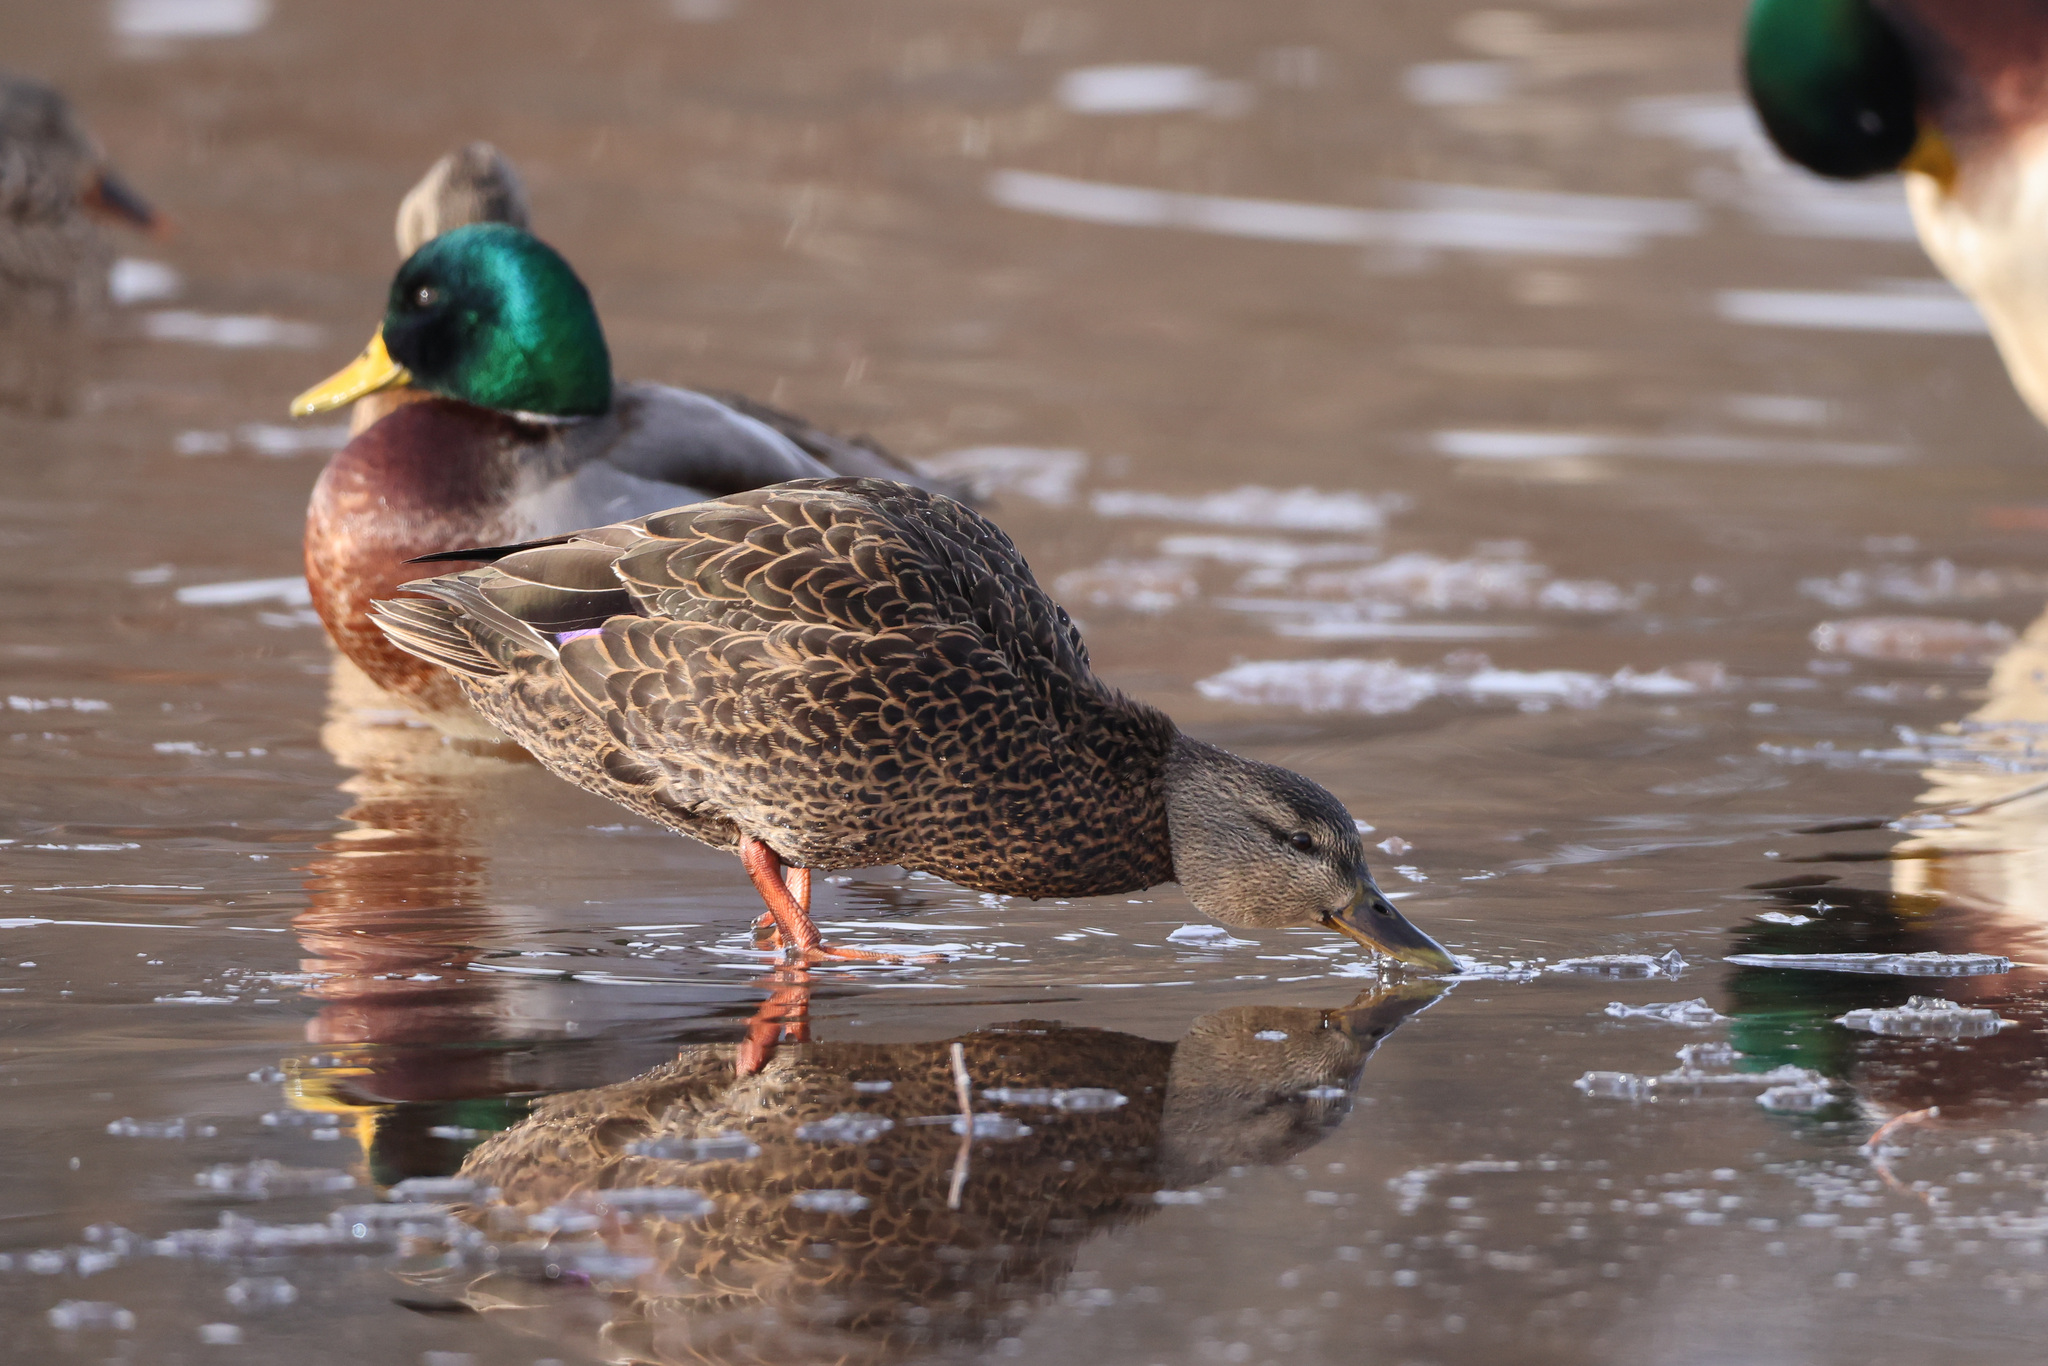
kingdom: Animalia
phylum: Chordata
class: Aves
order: Anseriformes
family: Anatidae
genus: Anas
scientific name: Anas rubripes
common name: American black duck
